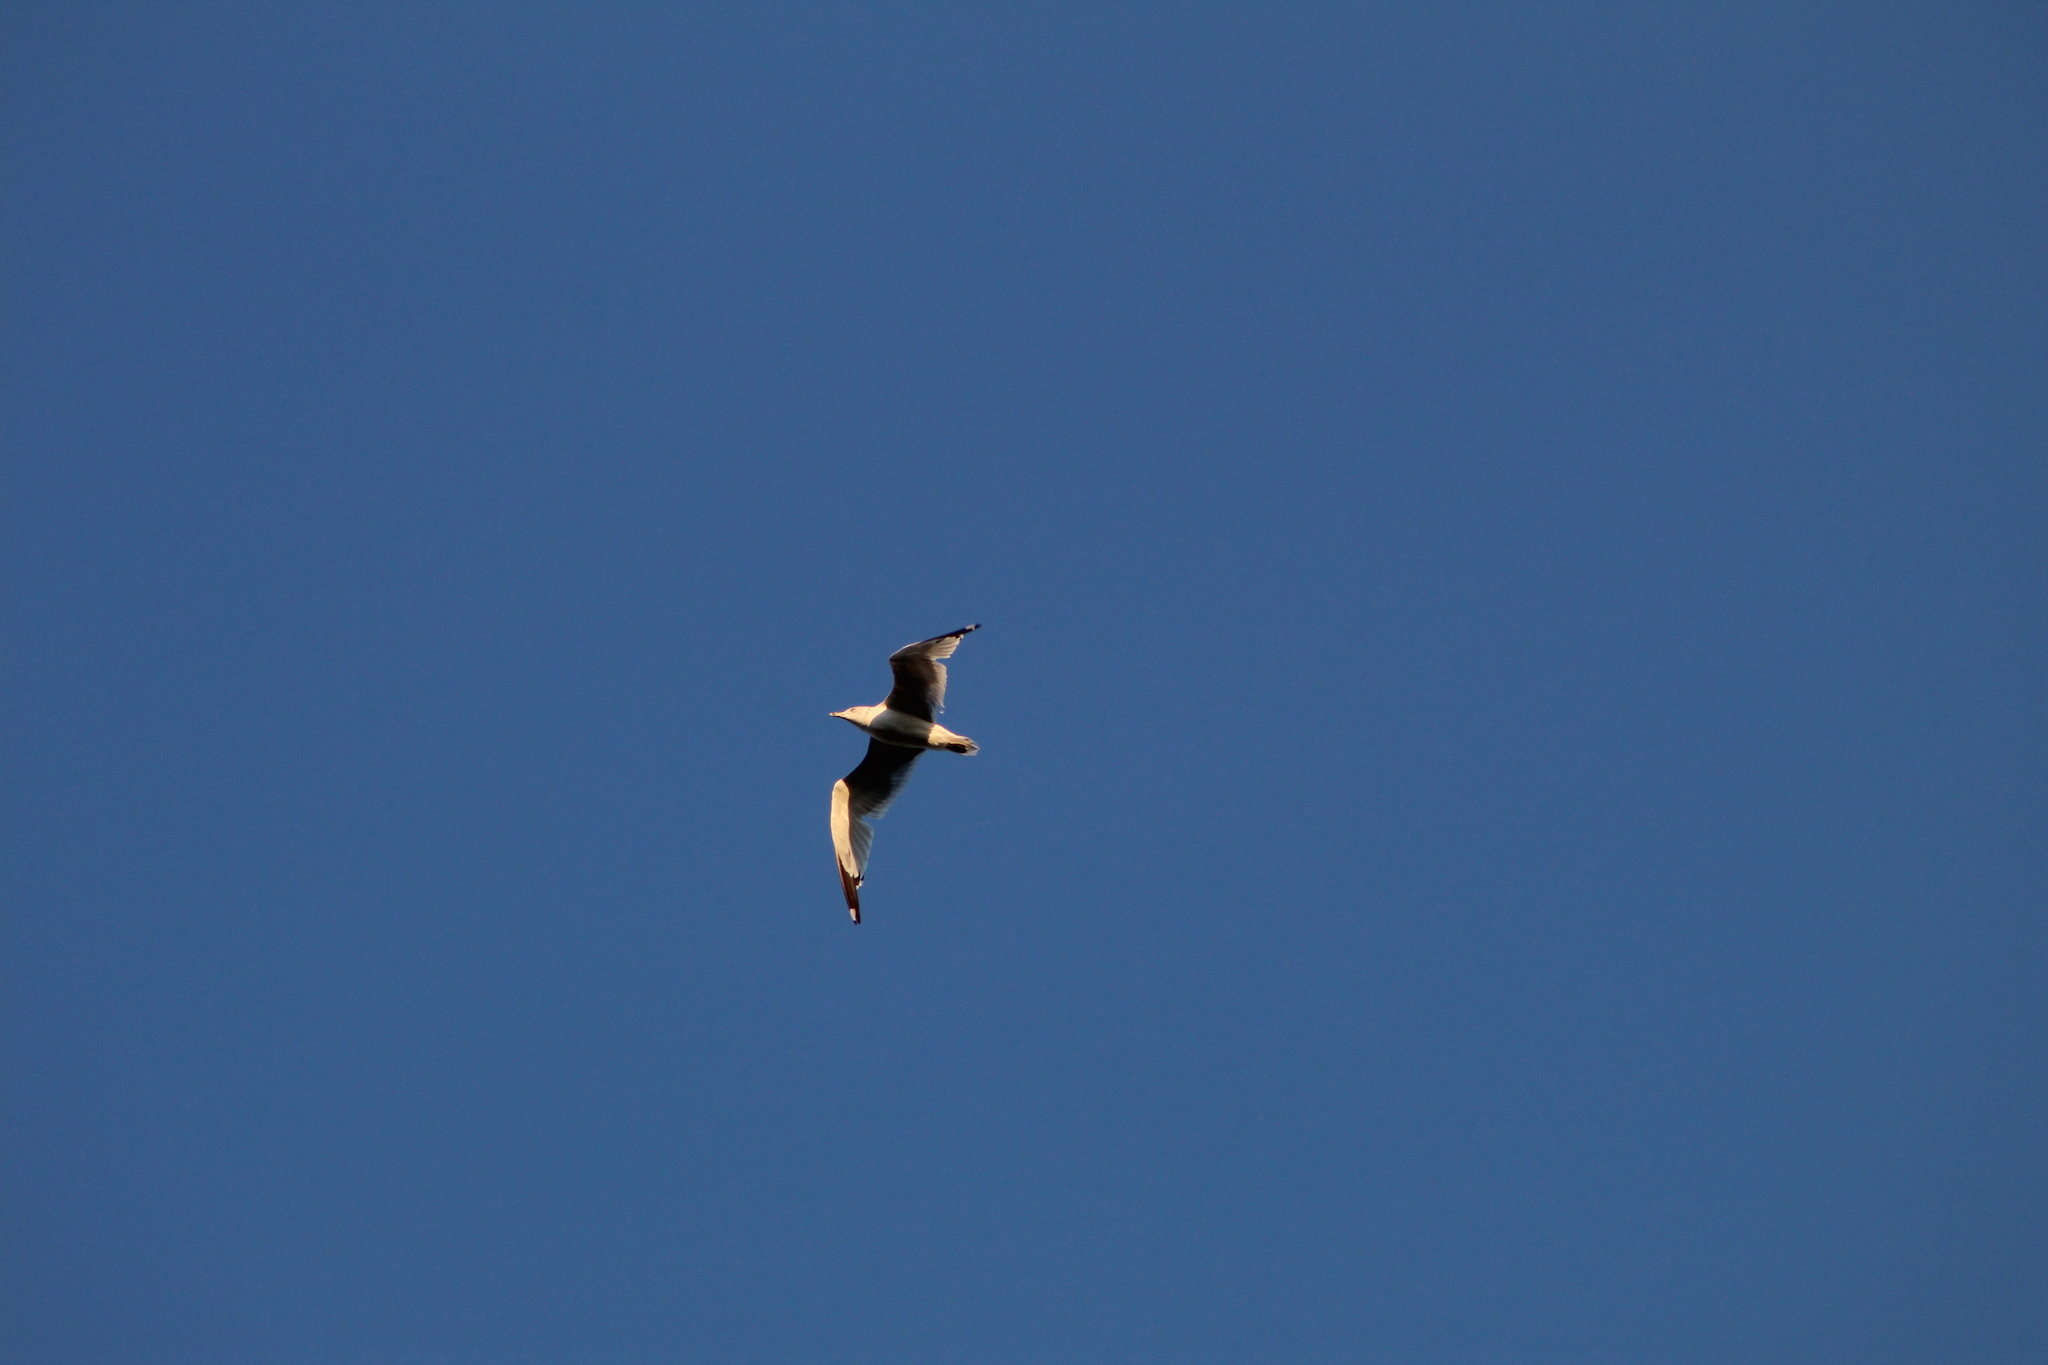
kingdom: Animalia
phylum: Chordata
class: Aves
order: Charadriiformes
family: Laridae
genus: Larus
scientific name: Larus delawarensis
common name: Ring-billed gull
